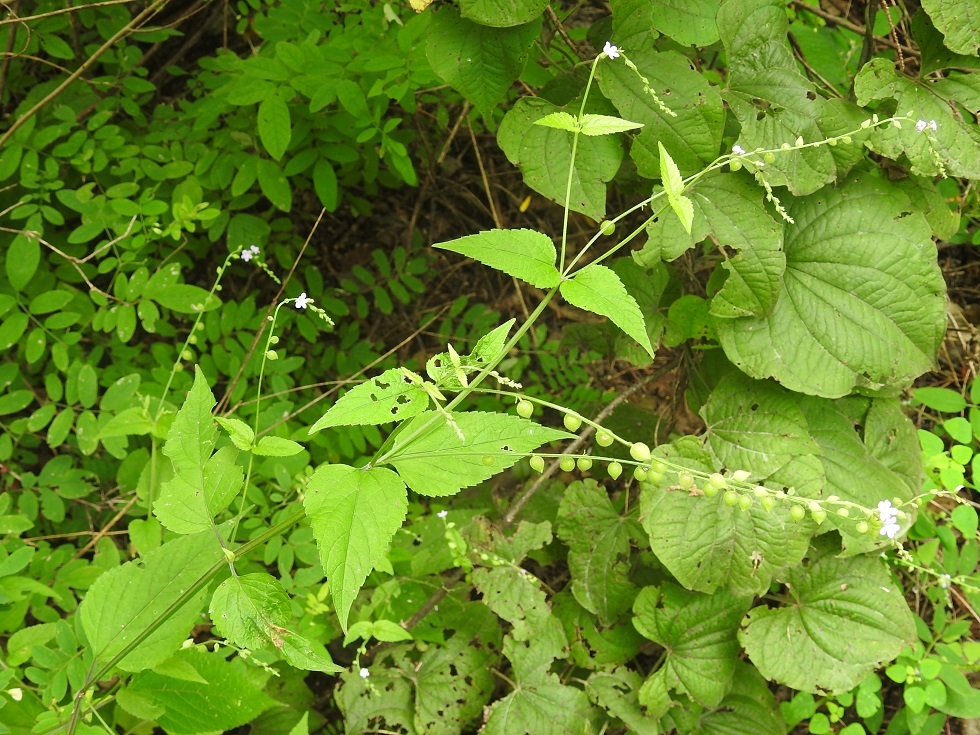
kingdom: Plantae
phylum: Tracheophyta
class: Magnoliopsida
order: Lamiales
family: Verbenaceae
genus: Priva
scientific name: Priva lappulacea
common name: Fasten-'pon-coat
